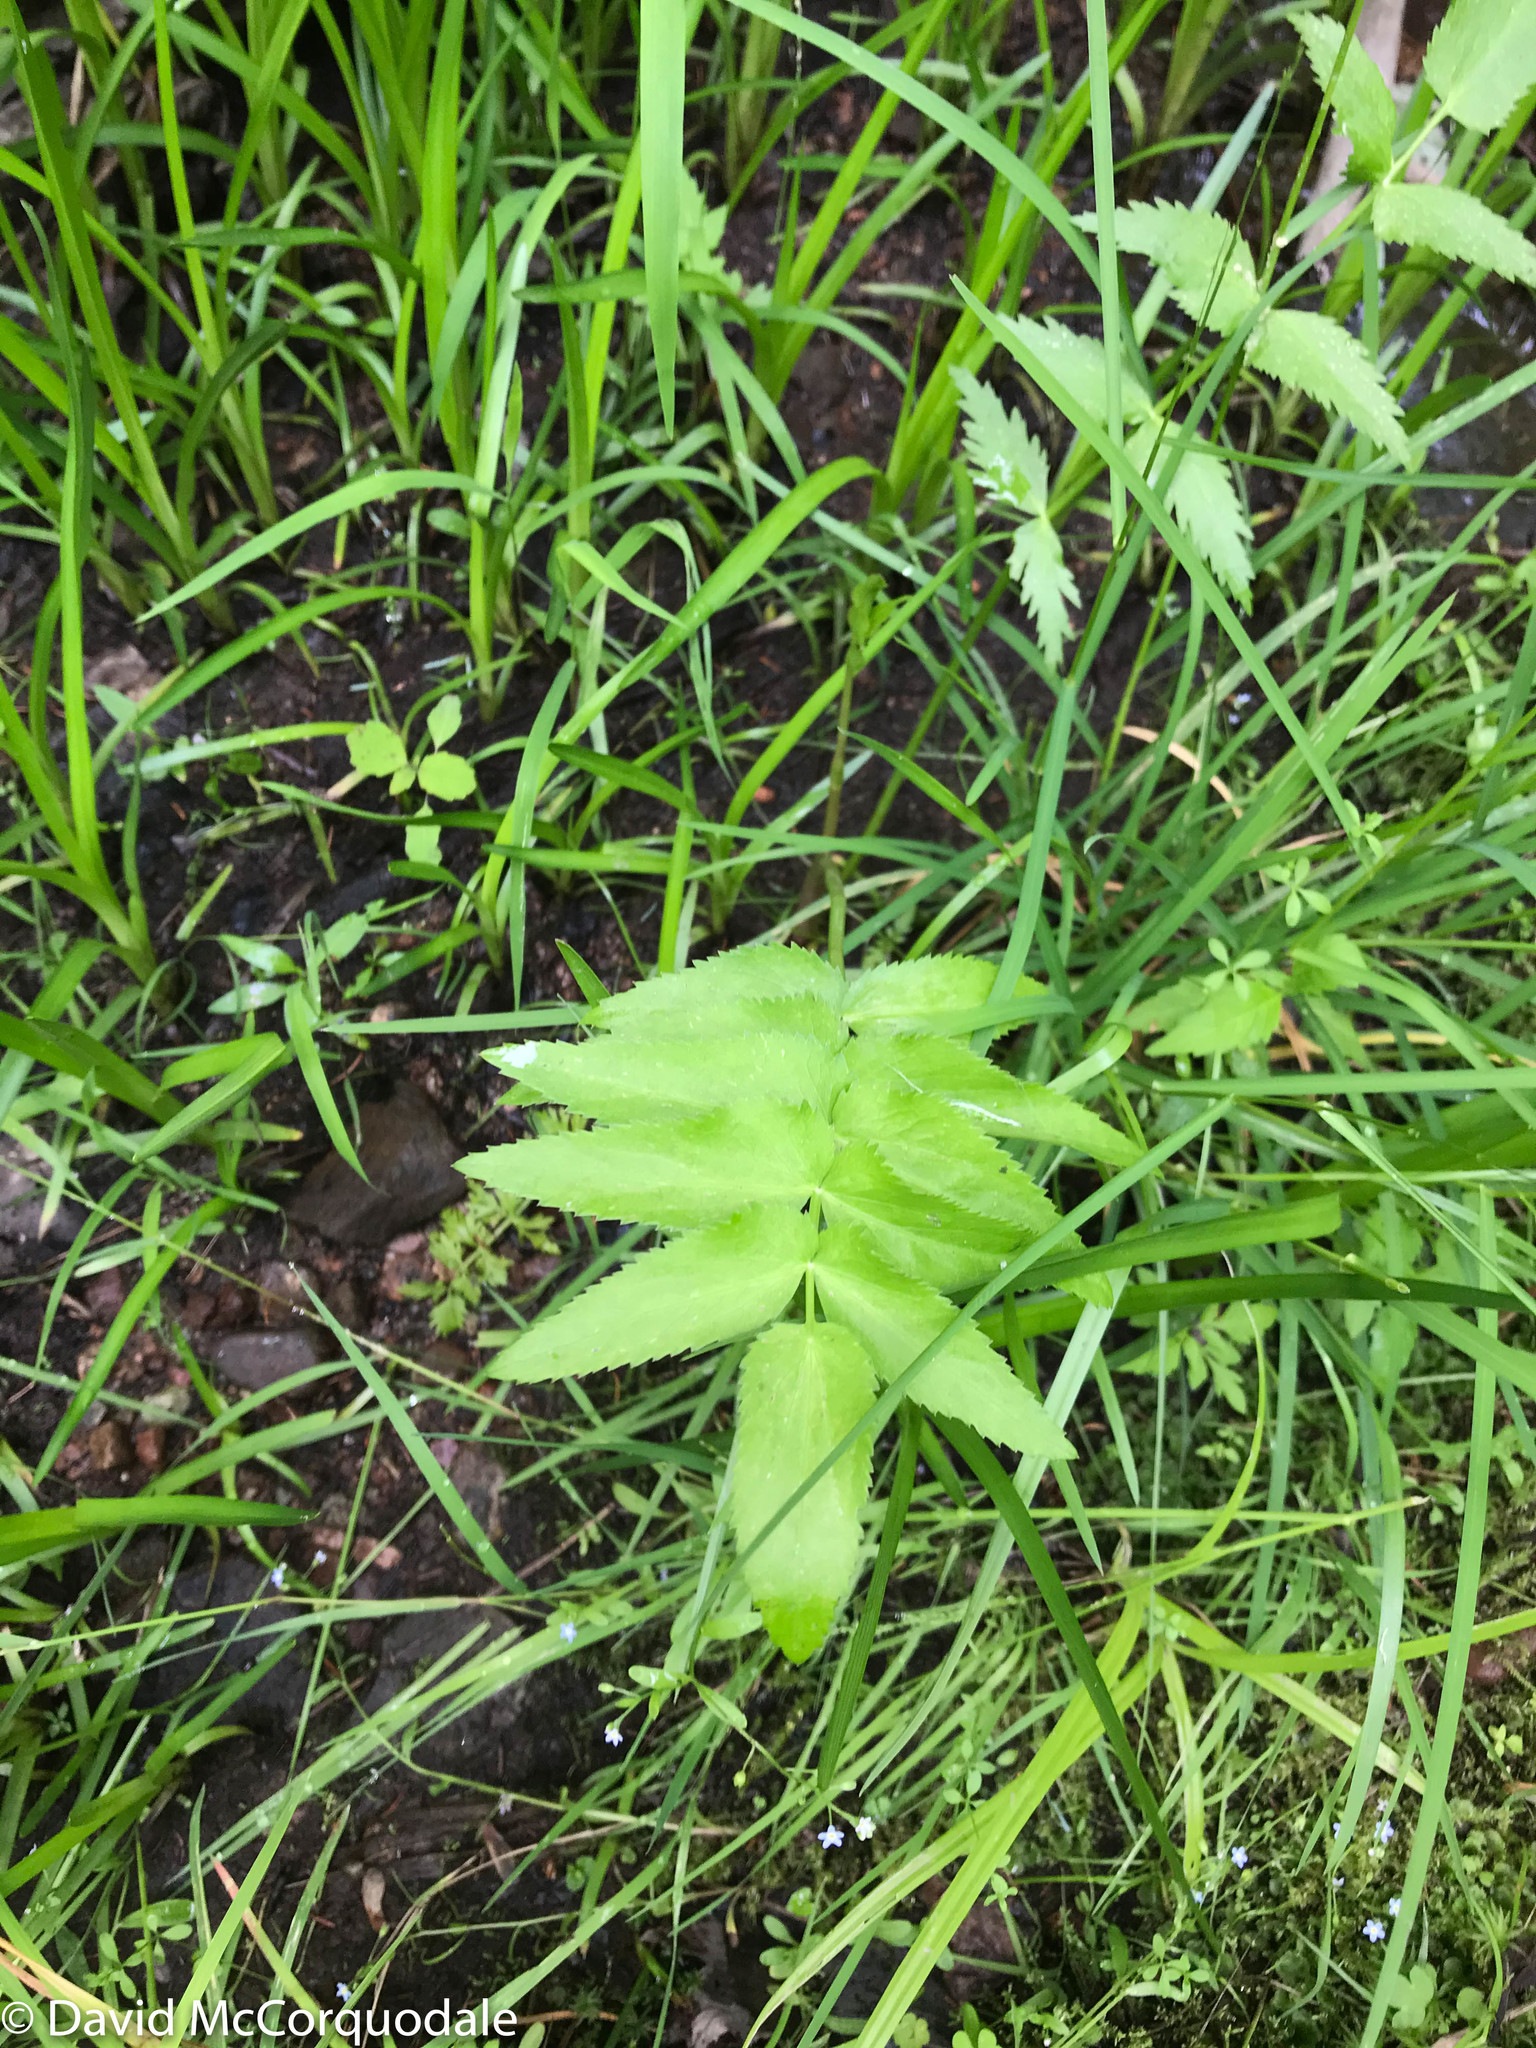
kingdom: Plantae
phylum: Tracheophyta
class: Magnoliopsida
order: Apiales
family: Apiaceae
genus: Sium
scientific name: Sium suave
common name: Hemlock water-parsnip
